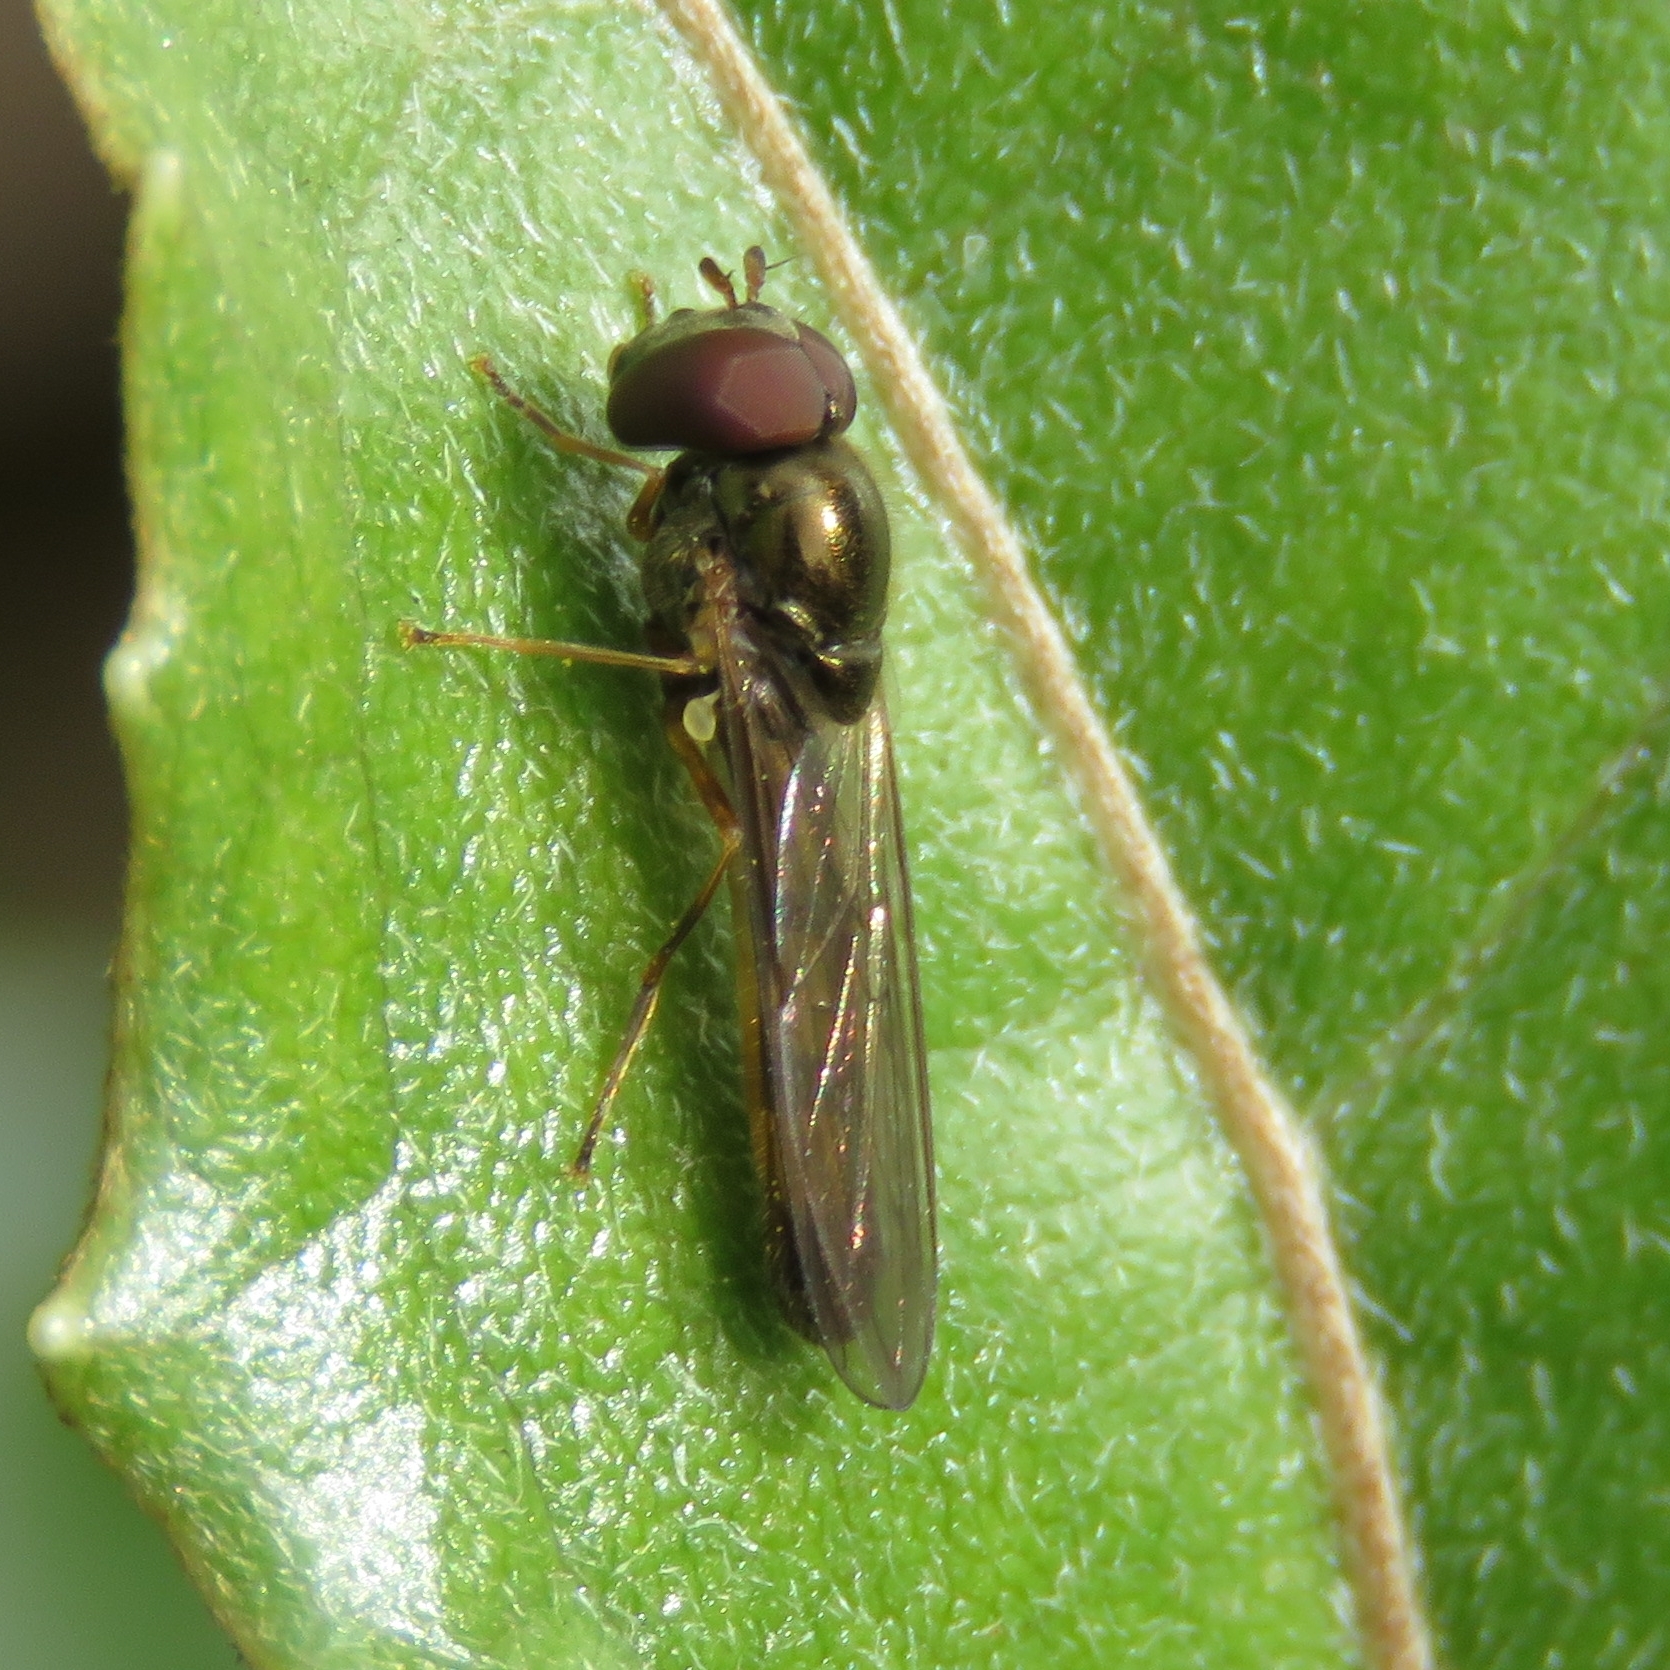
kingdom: Animalia
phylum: Arthropoda
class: Insecta
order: Diptera
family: Syrphidae
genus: Melanostoma
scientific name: Melanostoma scalare
